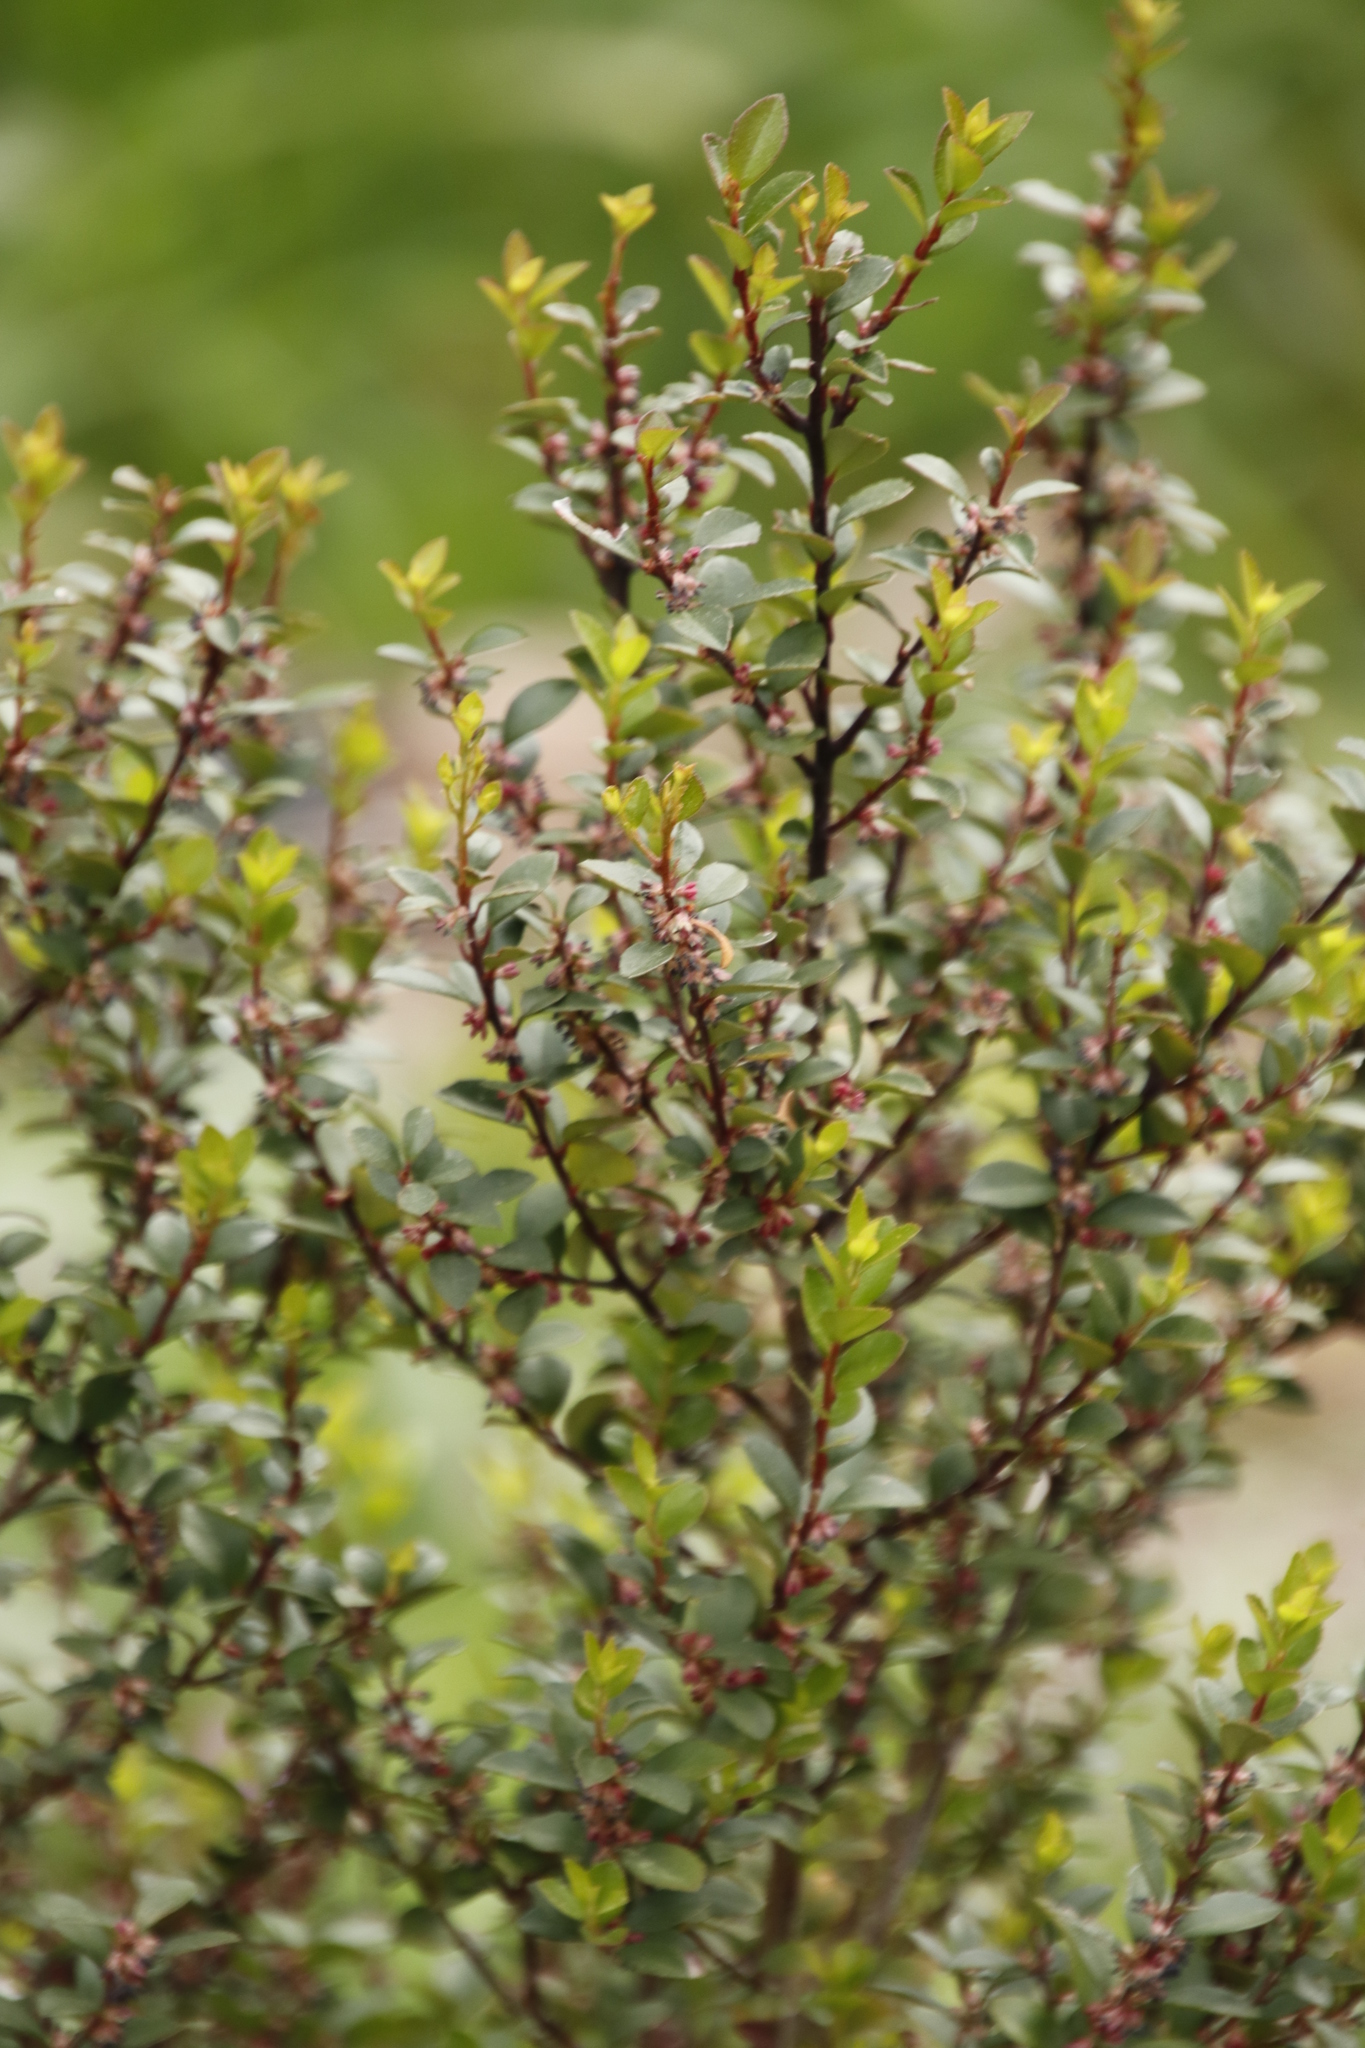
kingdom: Plantae
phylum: Tracheophyta
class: Magnoliopsida
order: Ericales
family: Primulaceae
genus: Myrsine
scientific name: Myrsine africana
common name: African-boxwood
